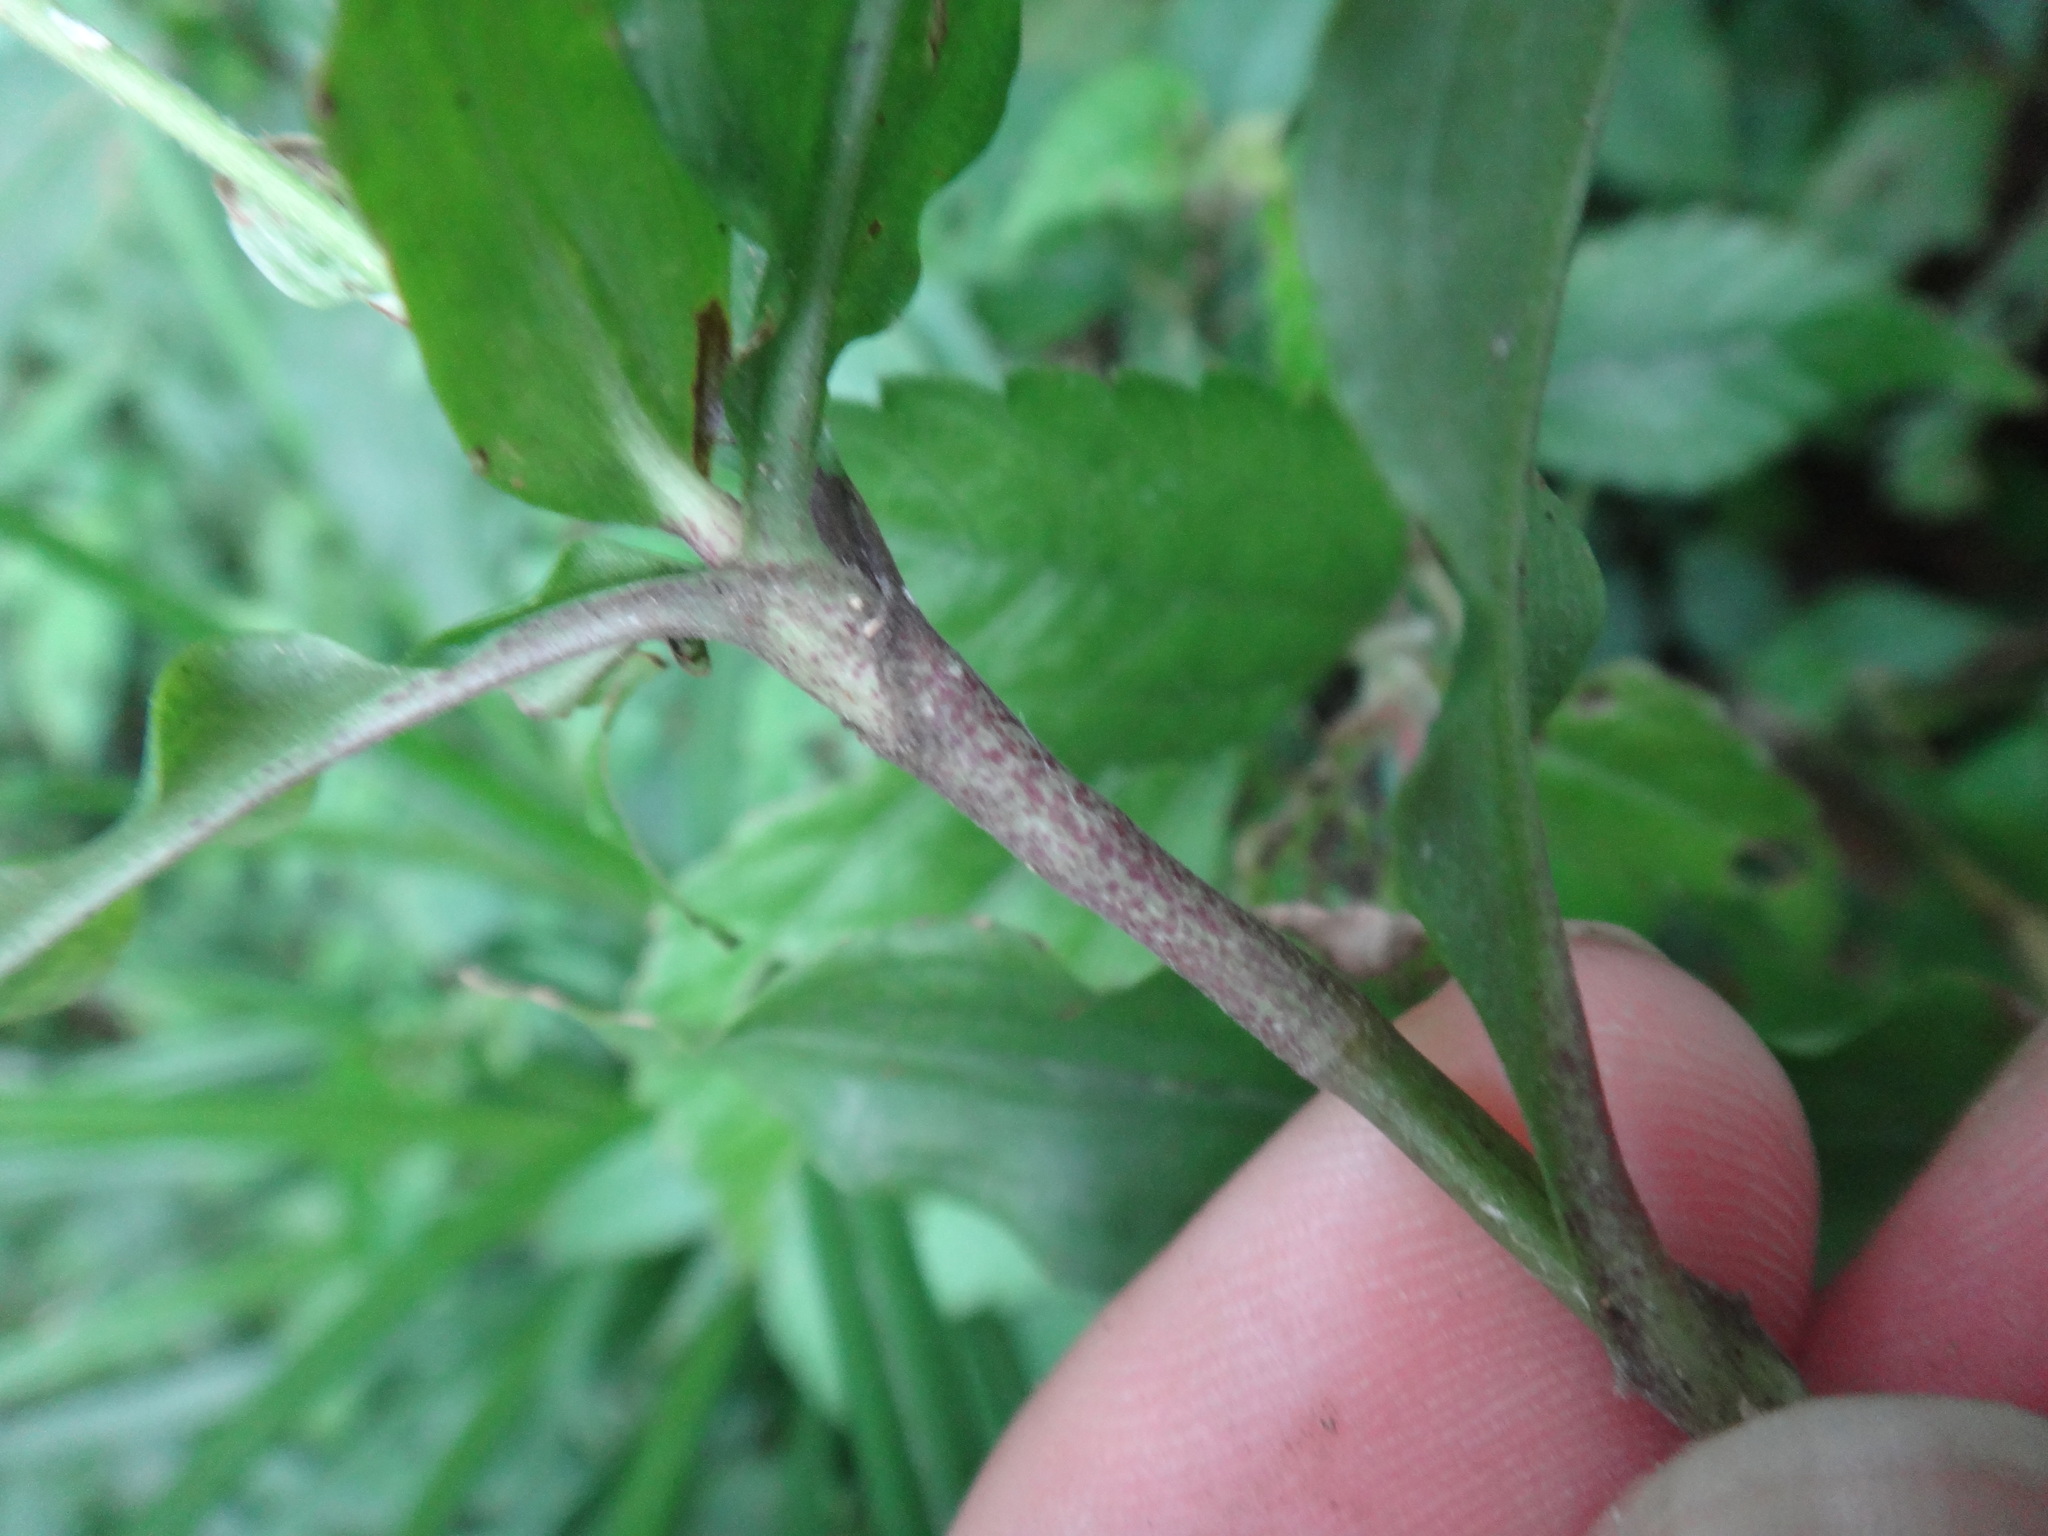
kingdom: Plantae
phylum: Tracheophyta
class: Liliopsida
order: Commelinales
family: Commelinaceae
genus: Pollia
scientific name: Pollia miranda
